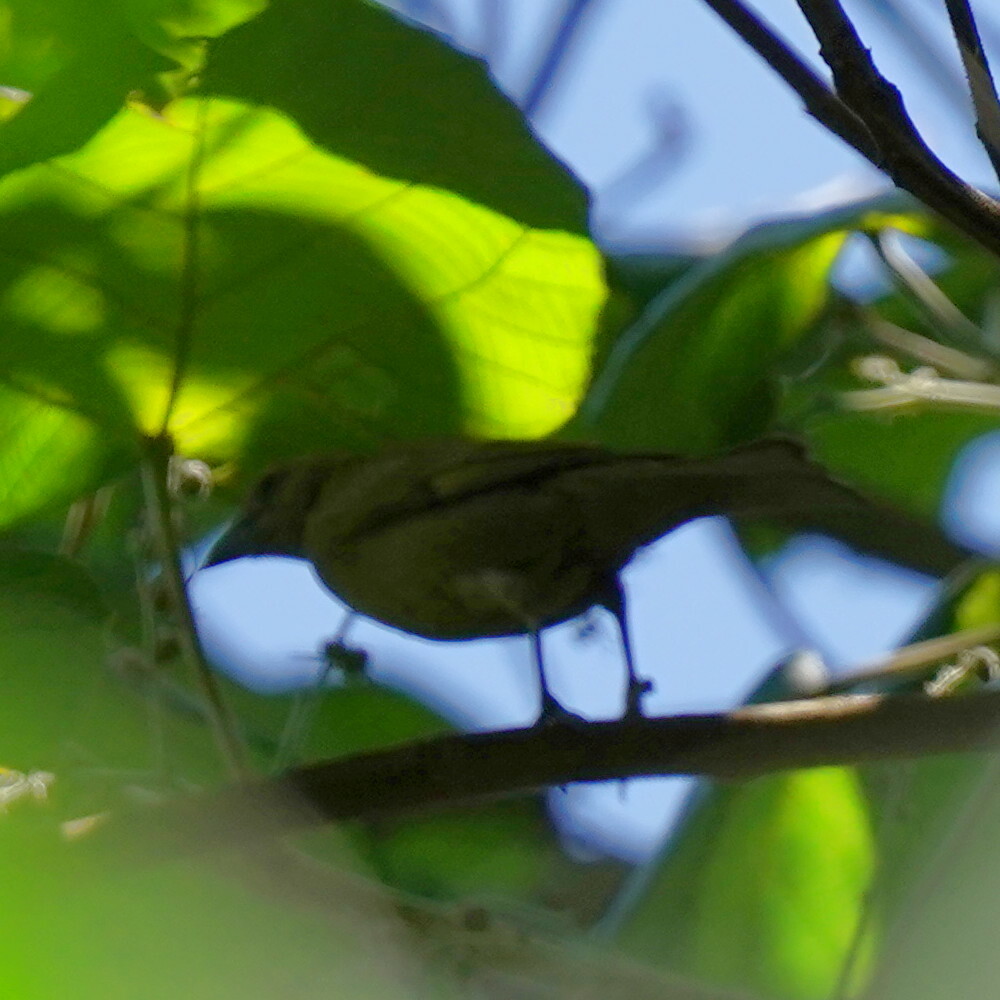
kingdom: Animalia
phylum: Chordata
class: Aves
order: Passeriformes
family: Thraupidae
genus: Thraupis
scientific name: Thraupis palmarum
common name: Palm tanager
